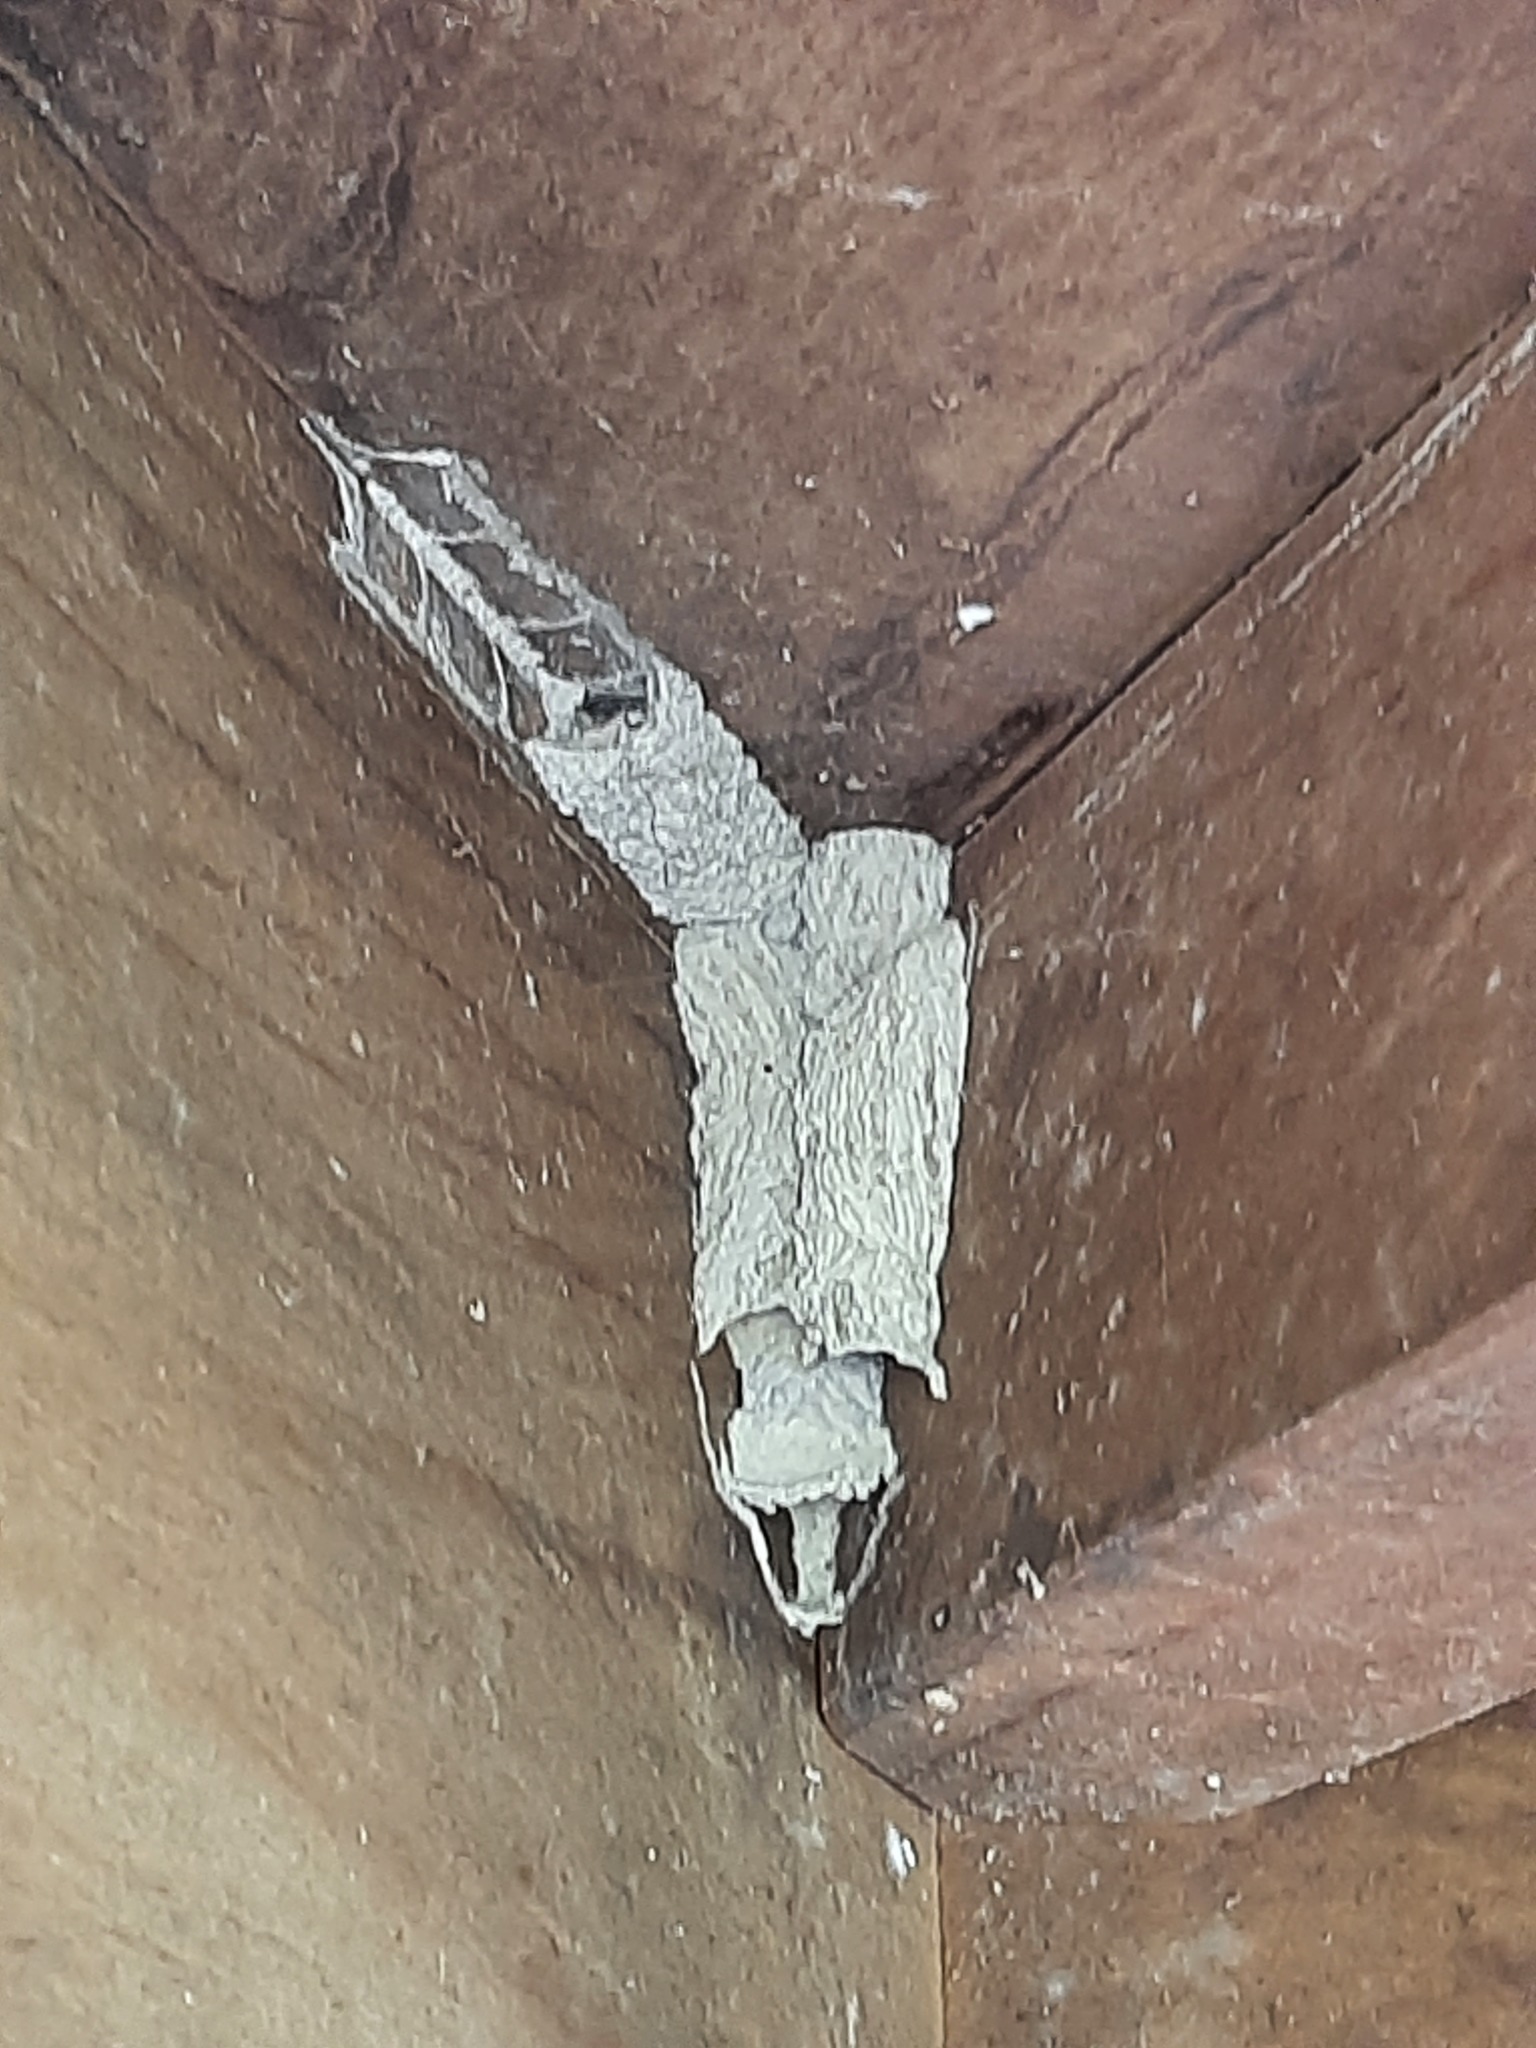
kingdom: Animalia
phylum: Arthropoda
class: Insecta
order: Hymenoptera
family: Crabronidae
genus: Pison
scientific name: Pison spinolae
